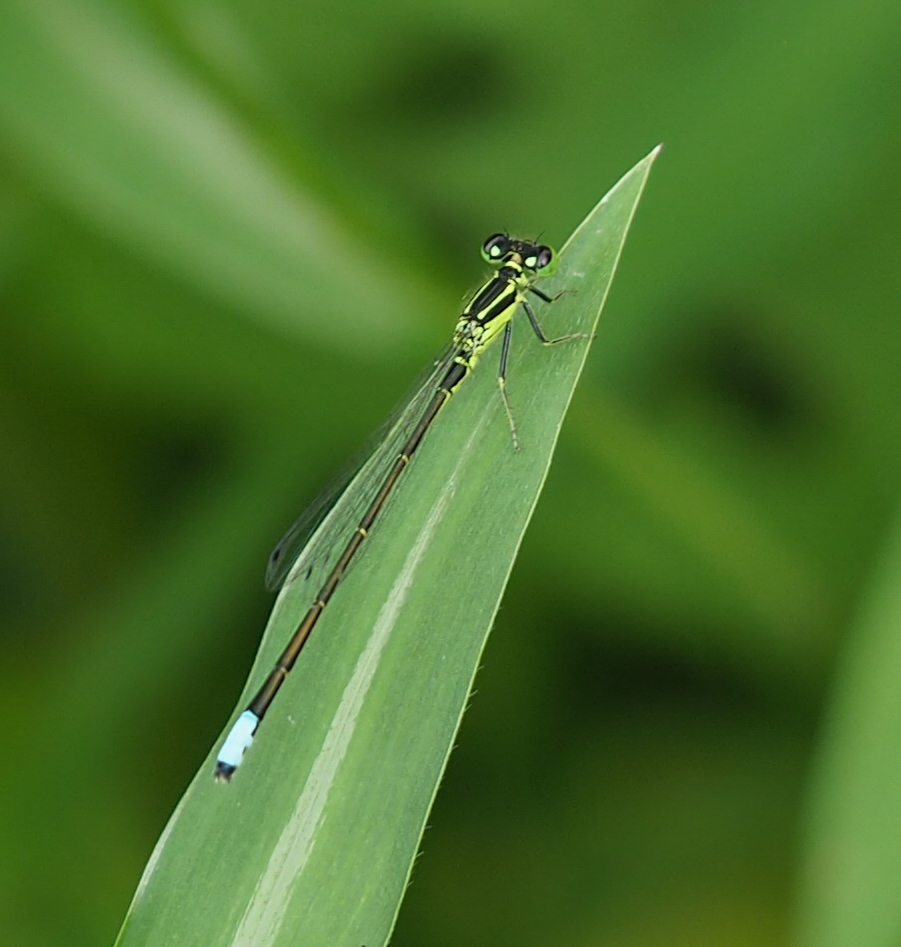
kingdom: Animalia
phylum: Arthropoda
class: Insecta
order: Odonata
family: Coenagrionidae
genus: Ischnura
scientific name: Ischnura verticalis
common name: Eastern forktail
